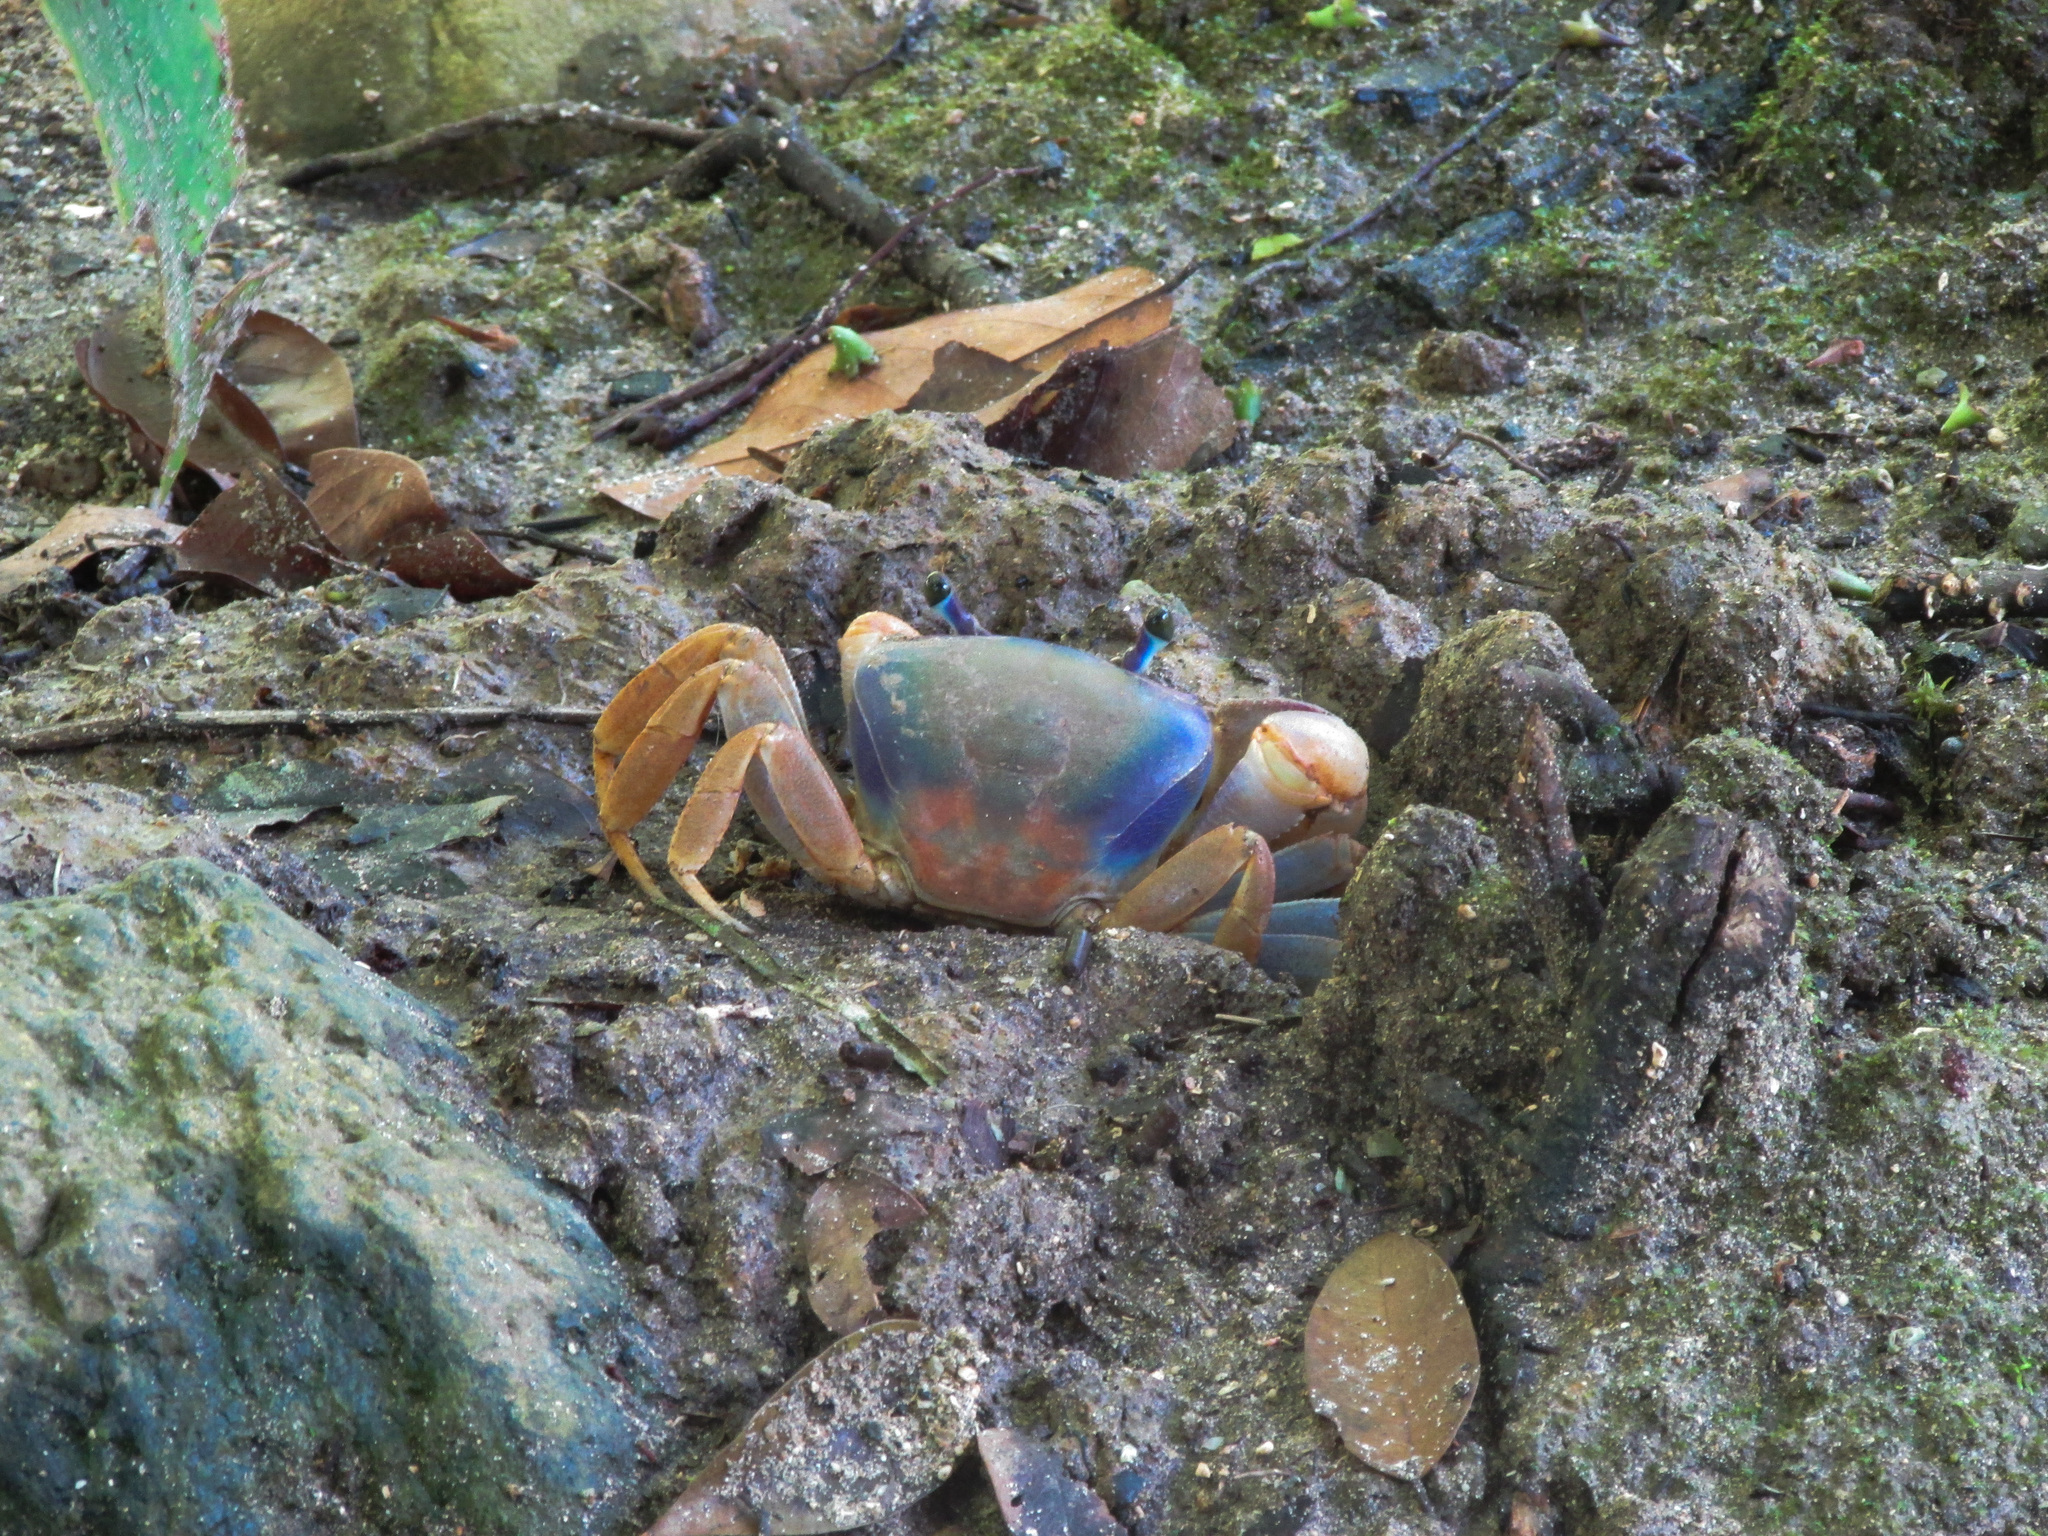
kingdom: Animalia
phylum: Arthropoda
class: Malacostraca
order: Decapoda
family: Gecarcinidae
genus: Cardisoma
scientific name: Cardisoma guanhumi
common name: Great land crab
